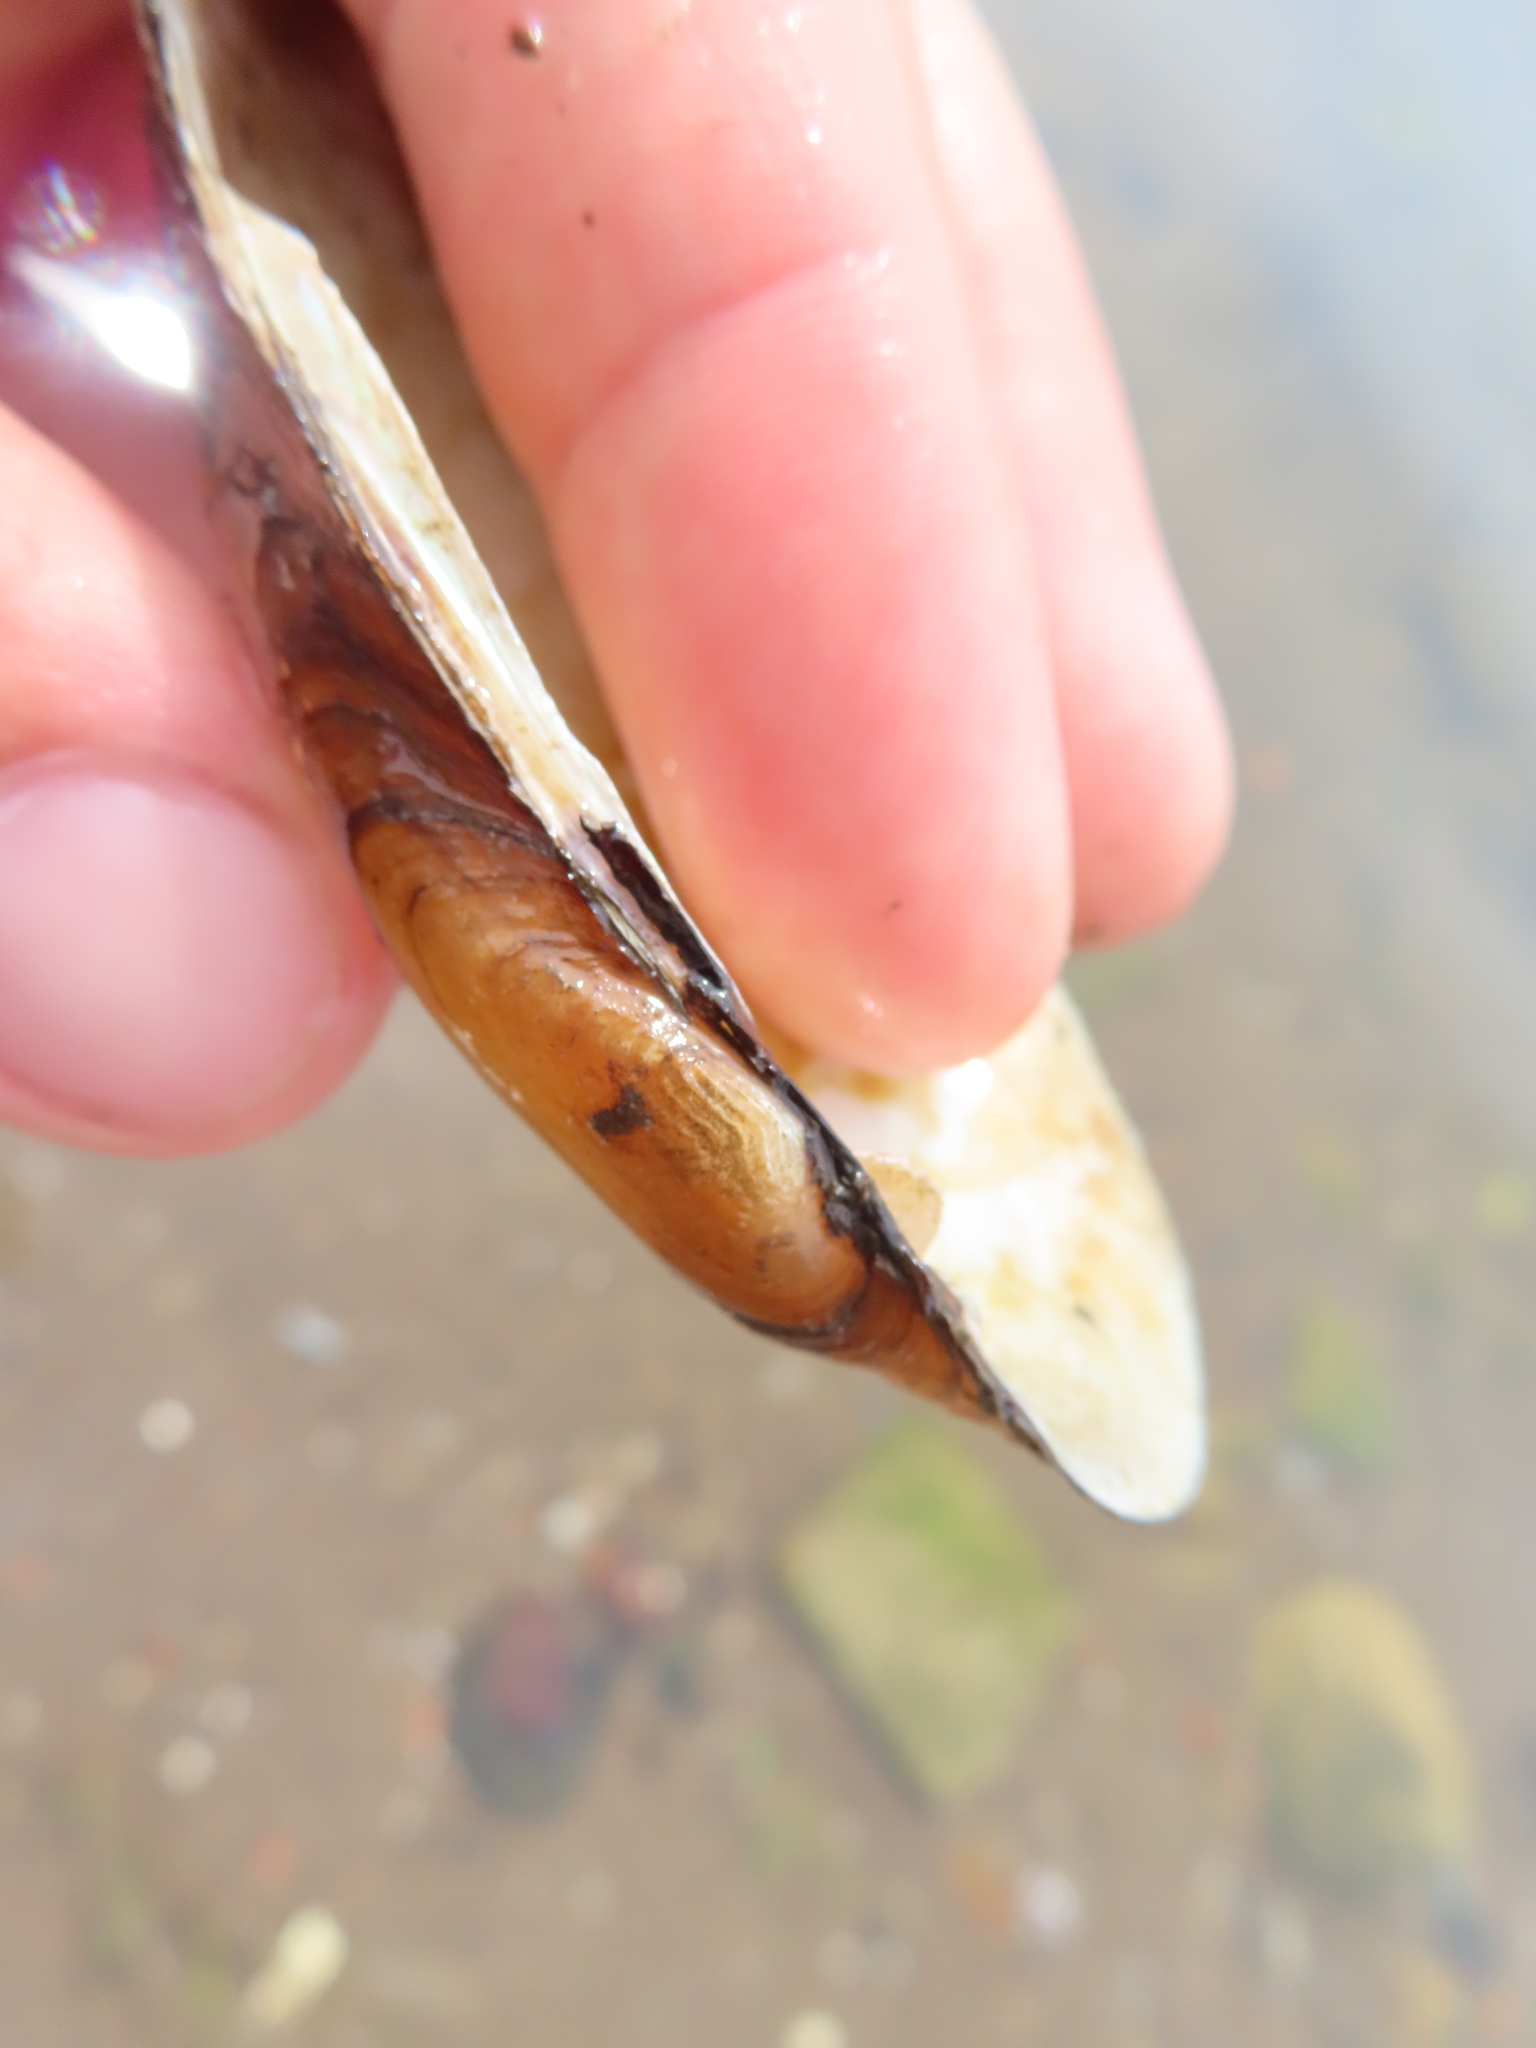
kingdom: Animalia
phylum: Mollusca
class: Bivalvia
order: Unionida
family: Unionidae
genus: Lampsilis
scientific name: Lampsilis teres
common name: Yellow sandshell
